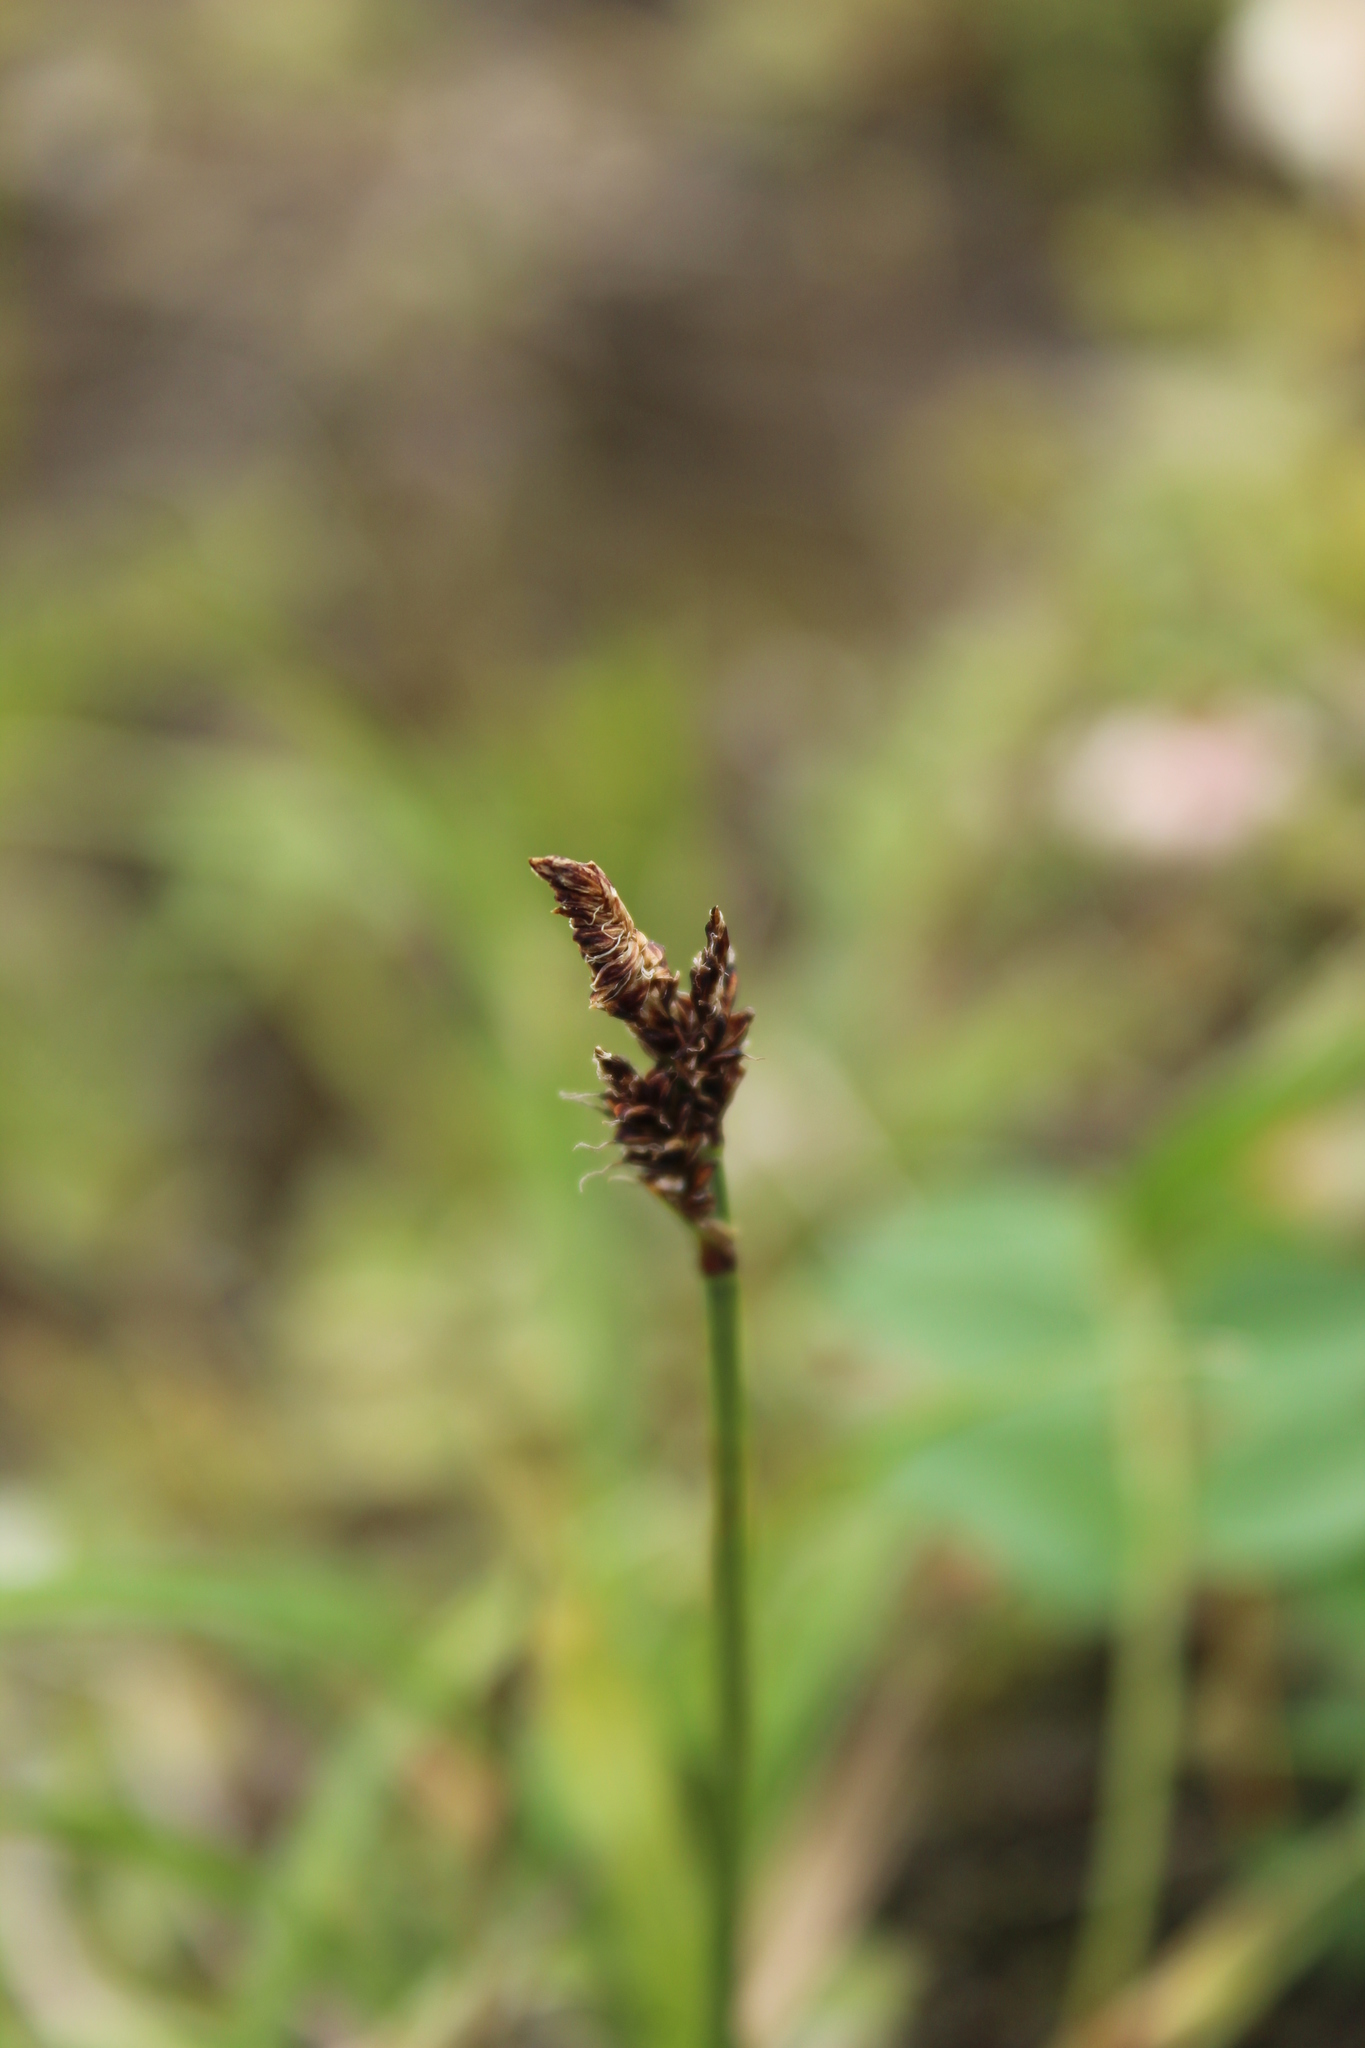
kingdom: Plantae
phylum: Tracheophyta
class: Liliopsida
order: Poales
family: Cyperaceae
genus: Carex
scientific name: Carex bigelowii
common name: Stiff sedge
